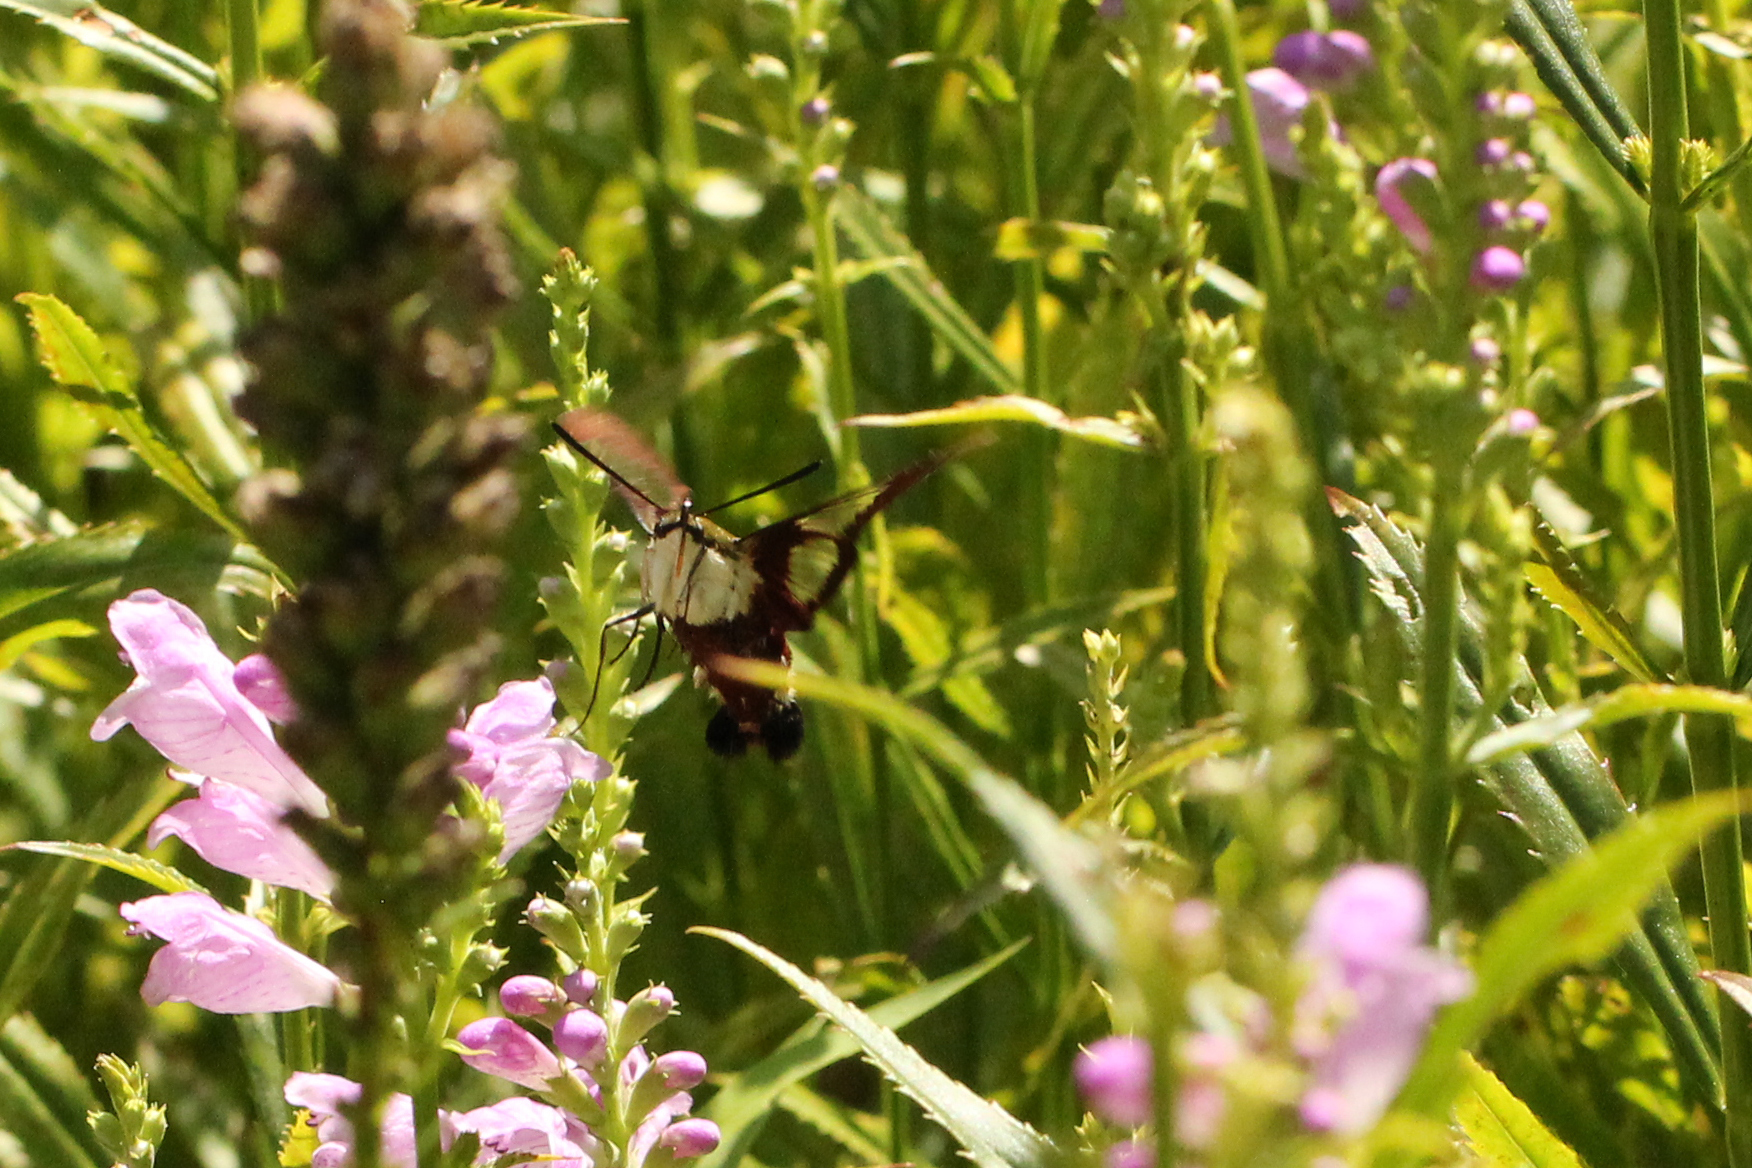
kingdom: Animalia
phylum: Arthropoda
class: Insecta
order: Lepidoptera
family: Sphingidae
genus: Hemaris
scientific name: Hemaris thysbe
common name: Common clear-wing
